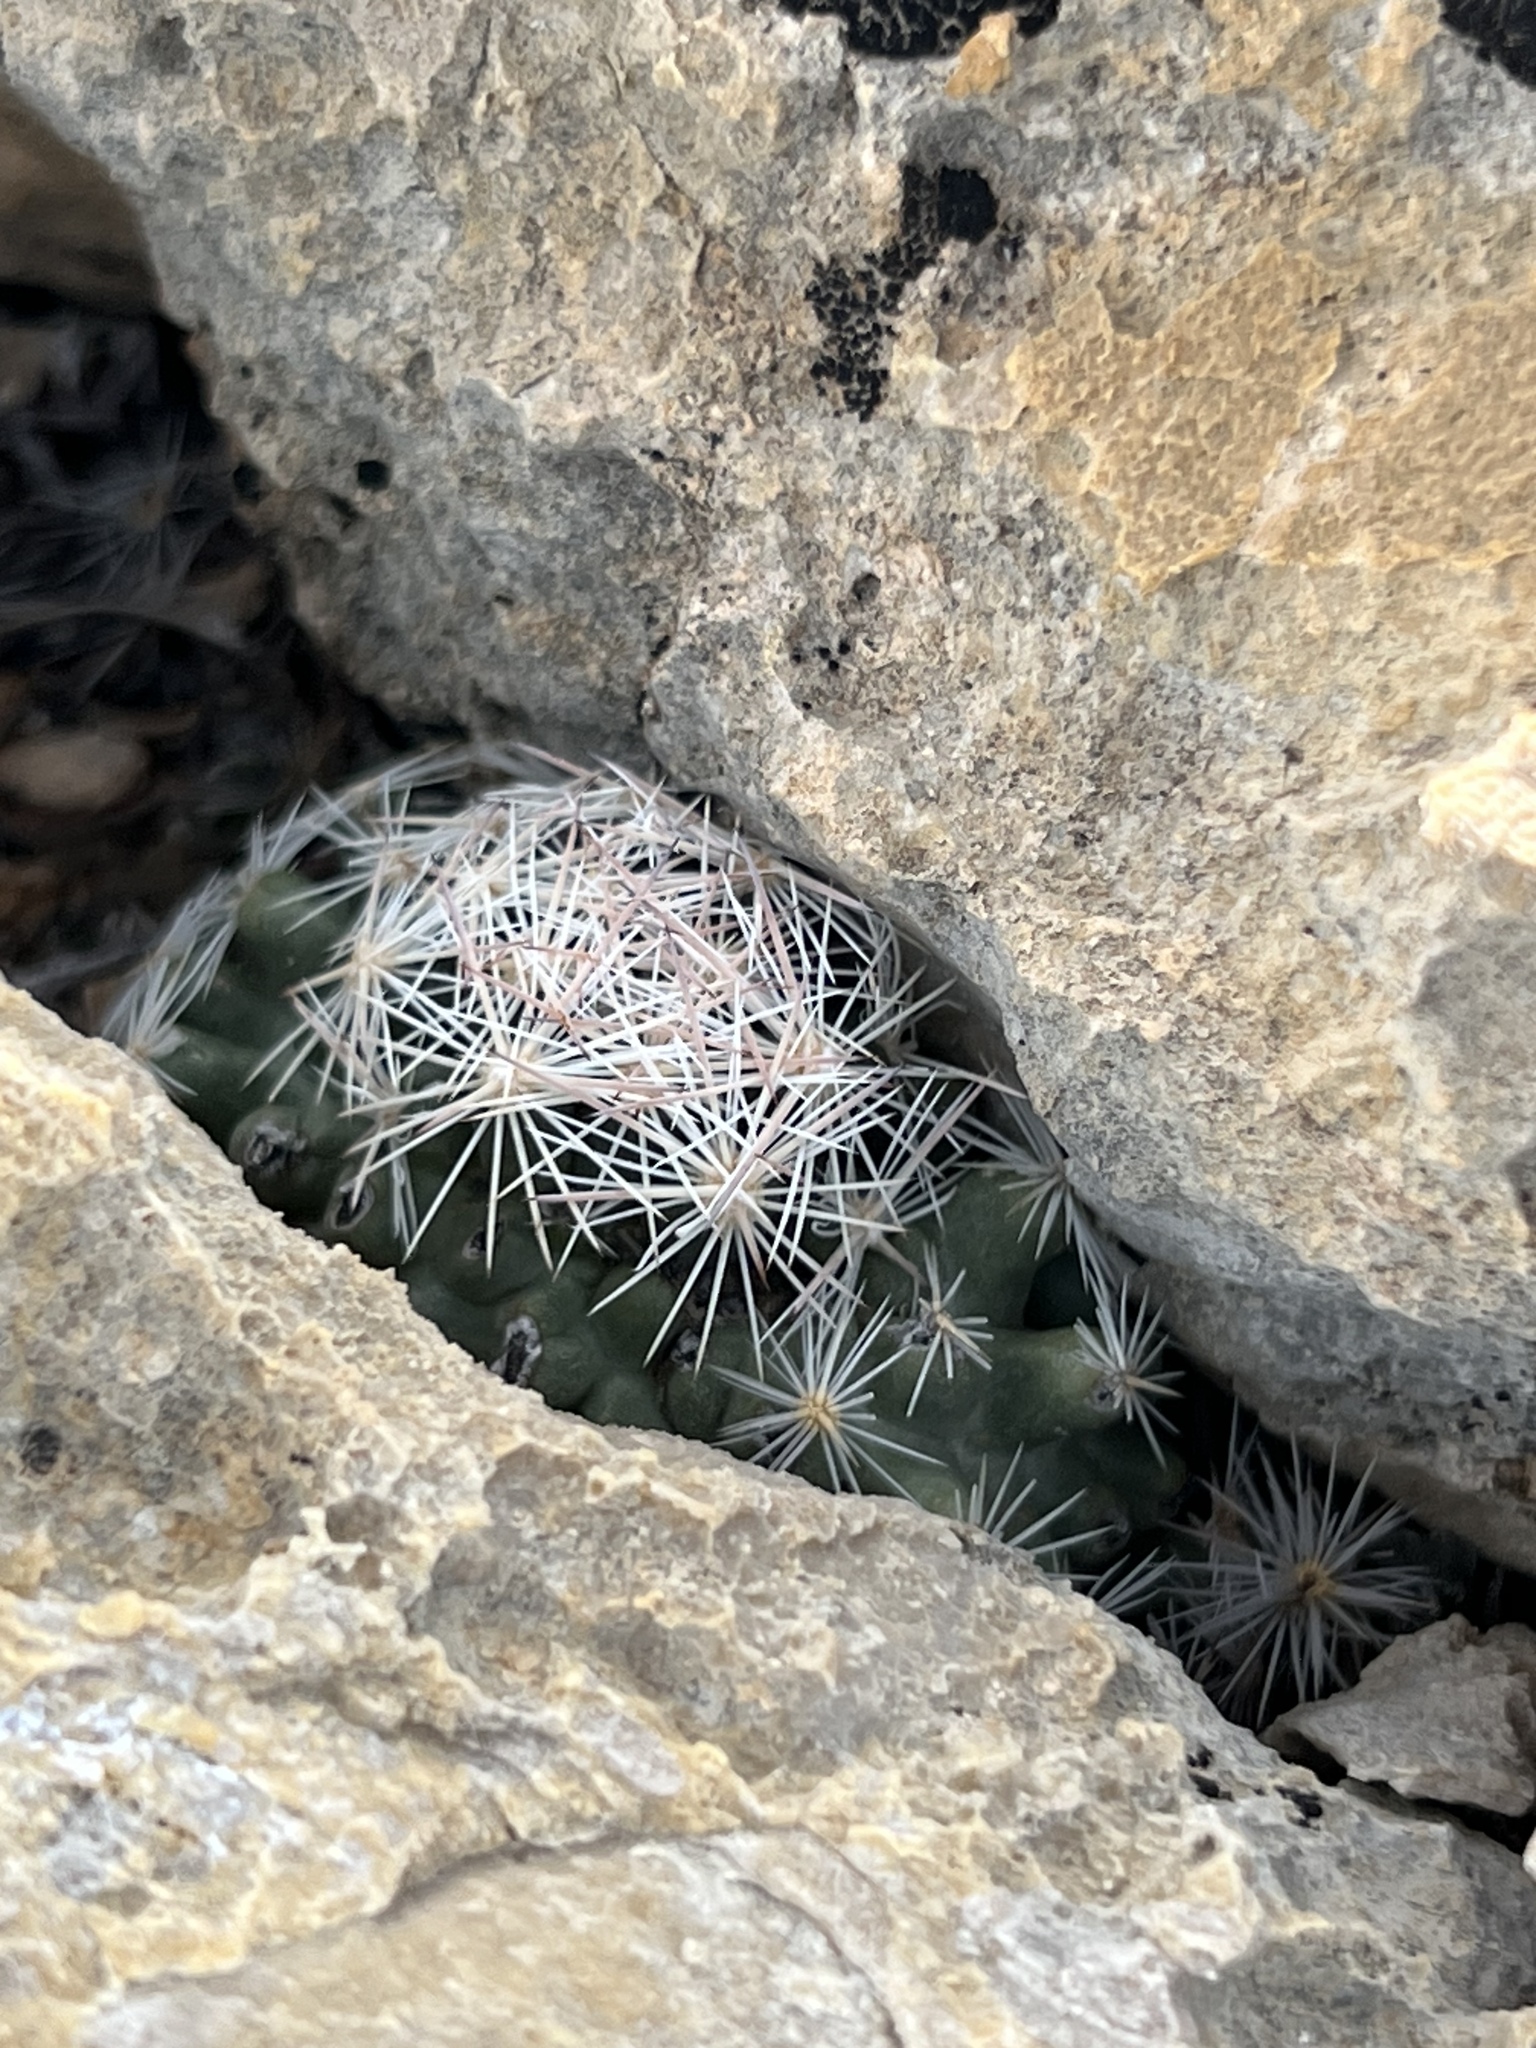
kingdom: Plantae
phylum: Tracheophyta
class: Magnoliopsida
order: Caryophyllales
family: Cactaceae
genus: Pelecyphora
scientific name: Pelecyphora dasyacantha
